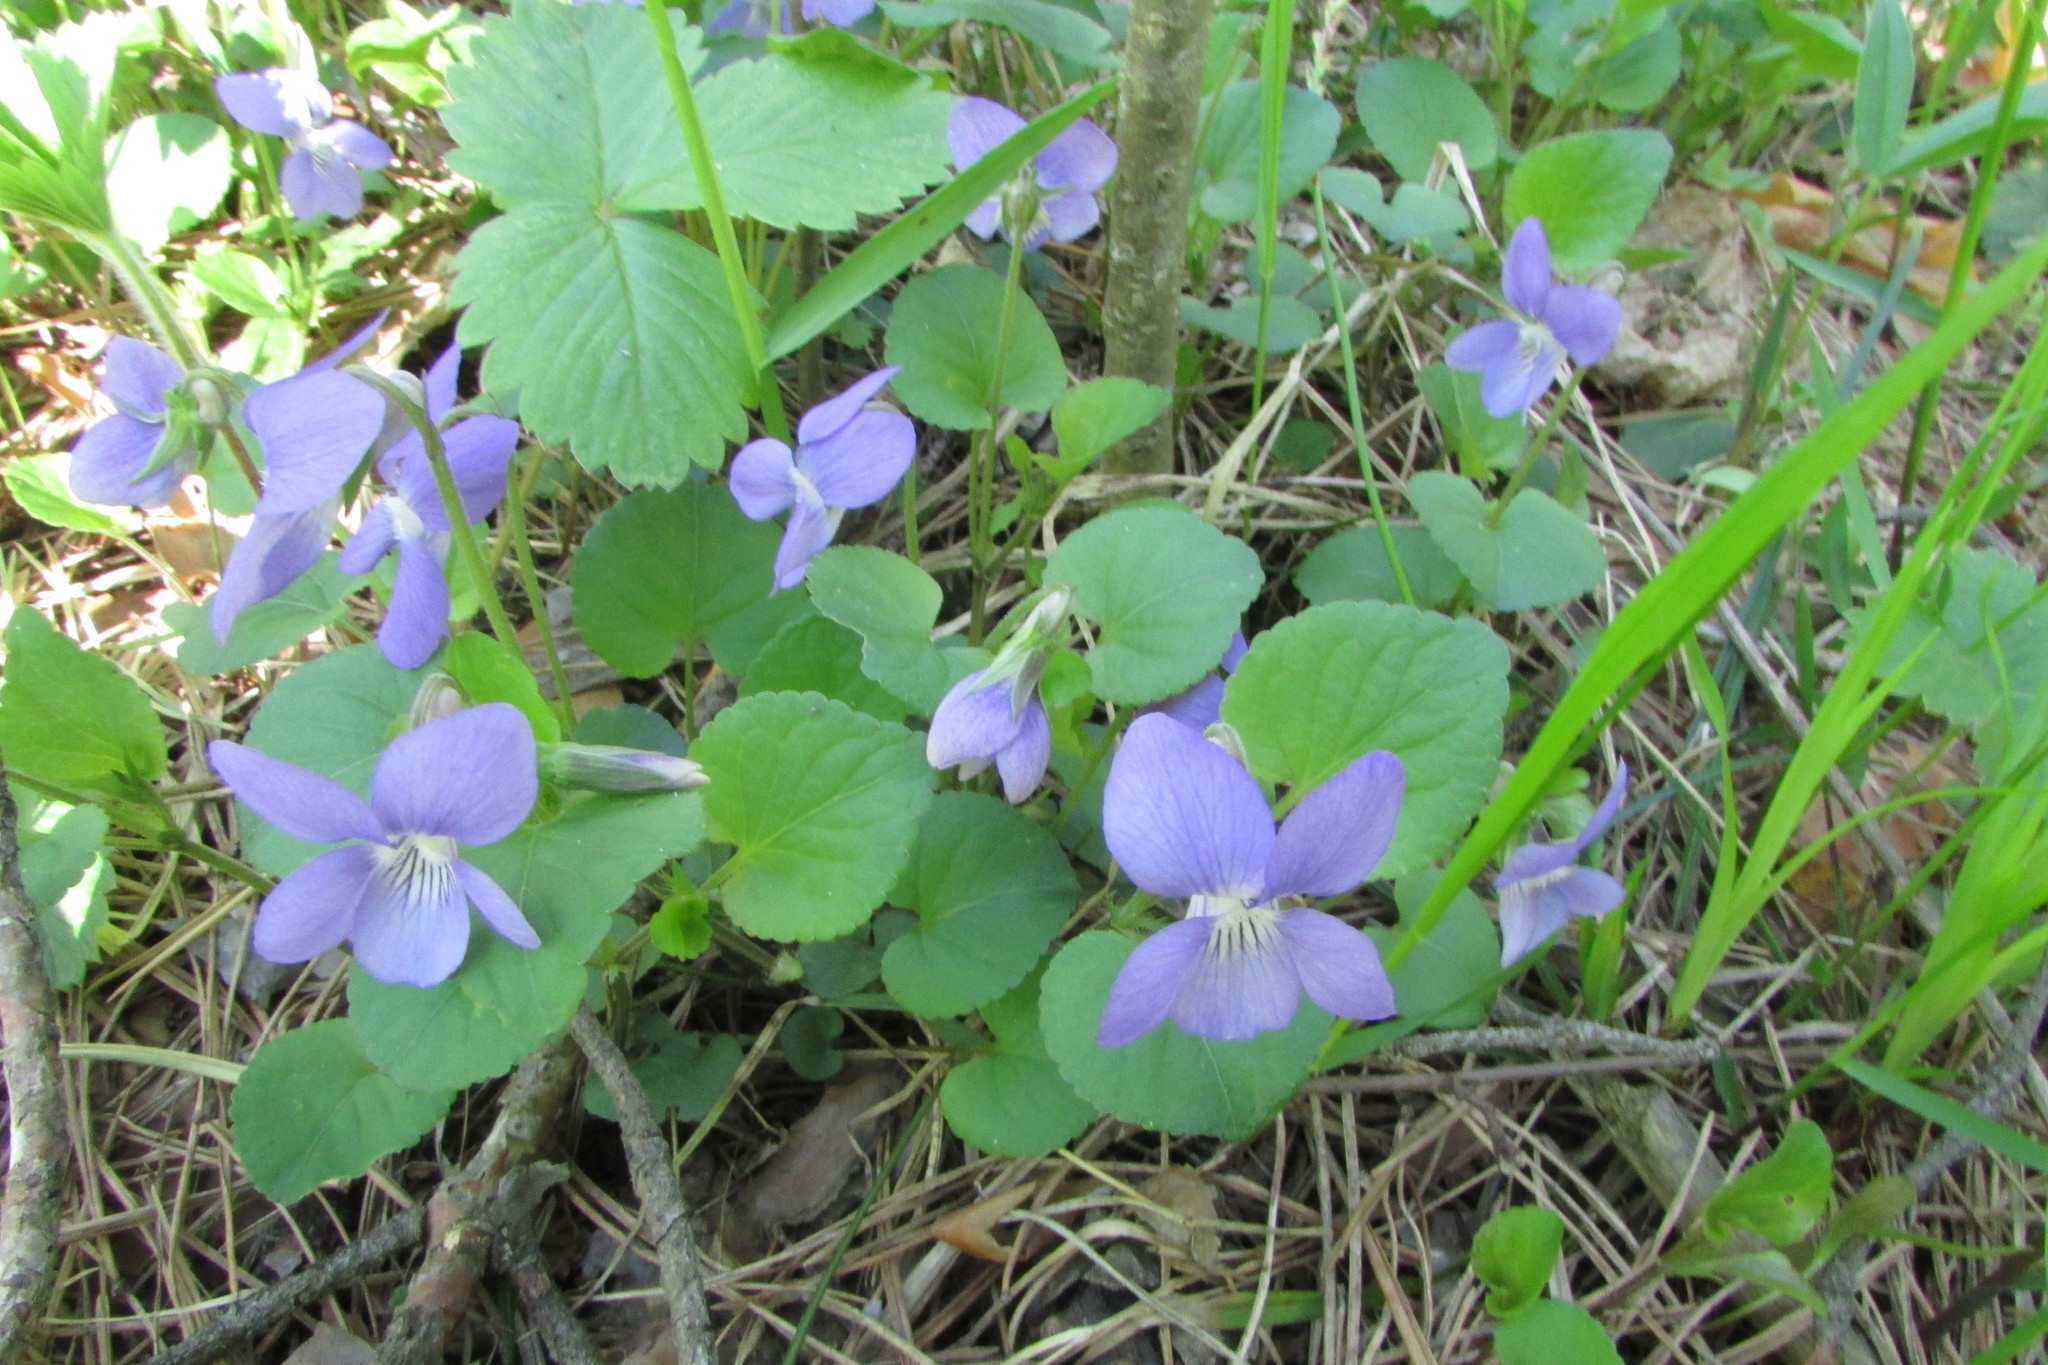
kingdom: Plantae
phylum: Tracheophyta
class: Magnoliopsida
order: Malpighiales
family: Violaceae
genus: Viola
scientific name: Viola rupestris
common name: Teesdale violet
